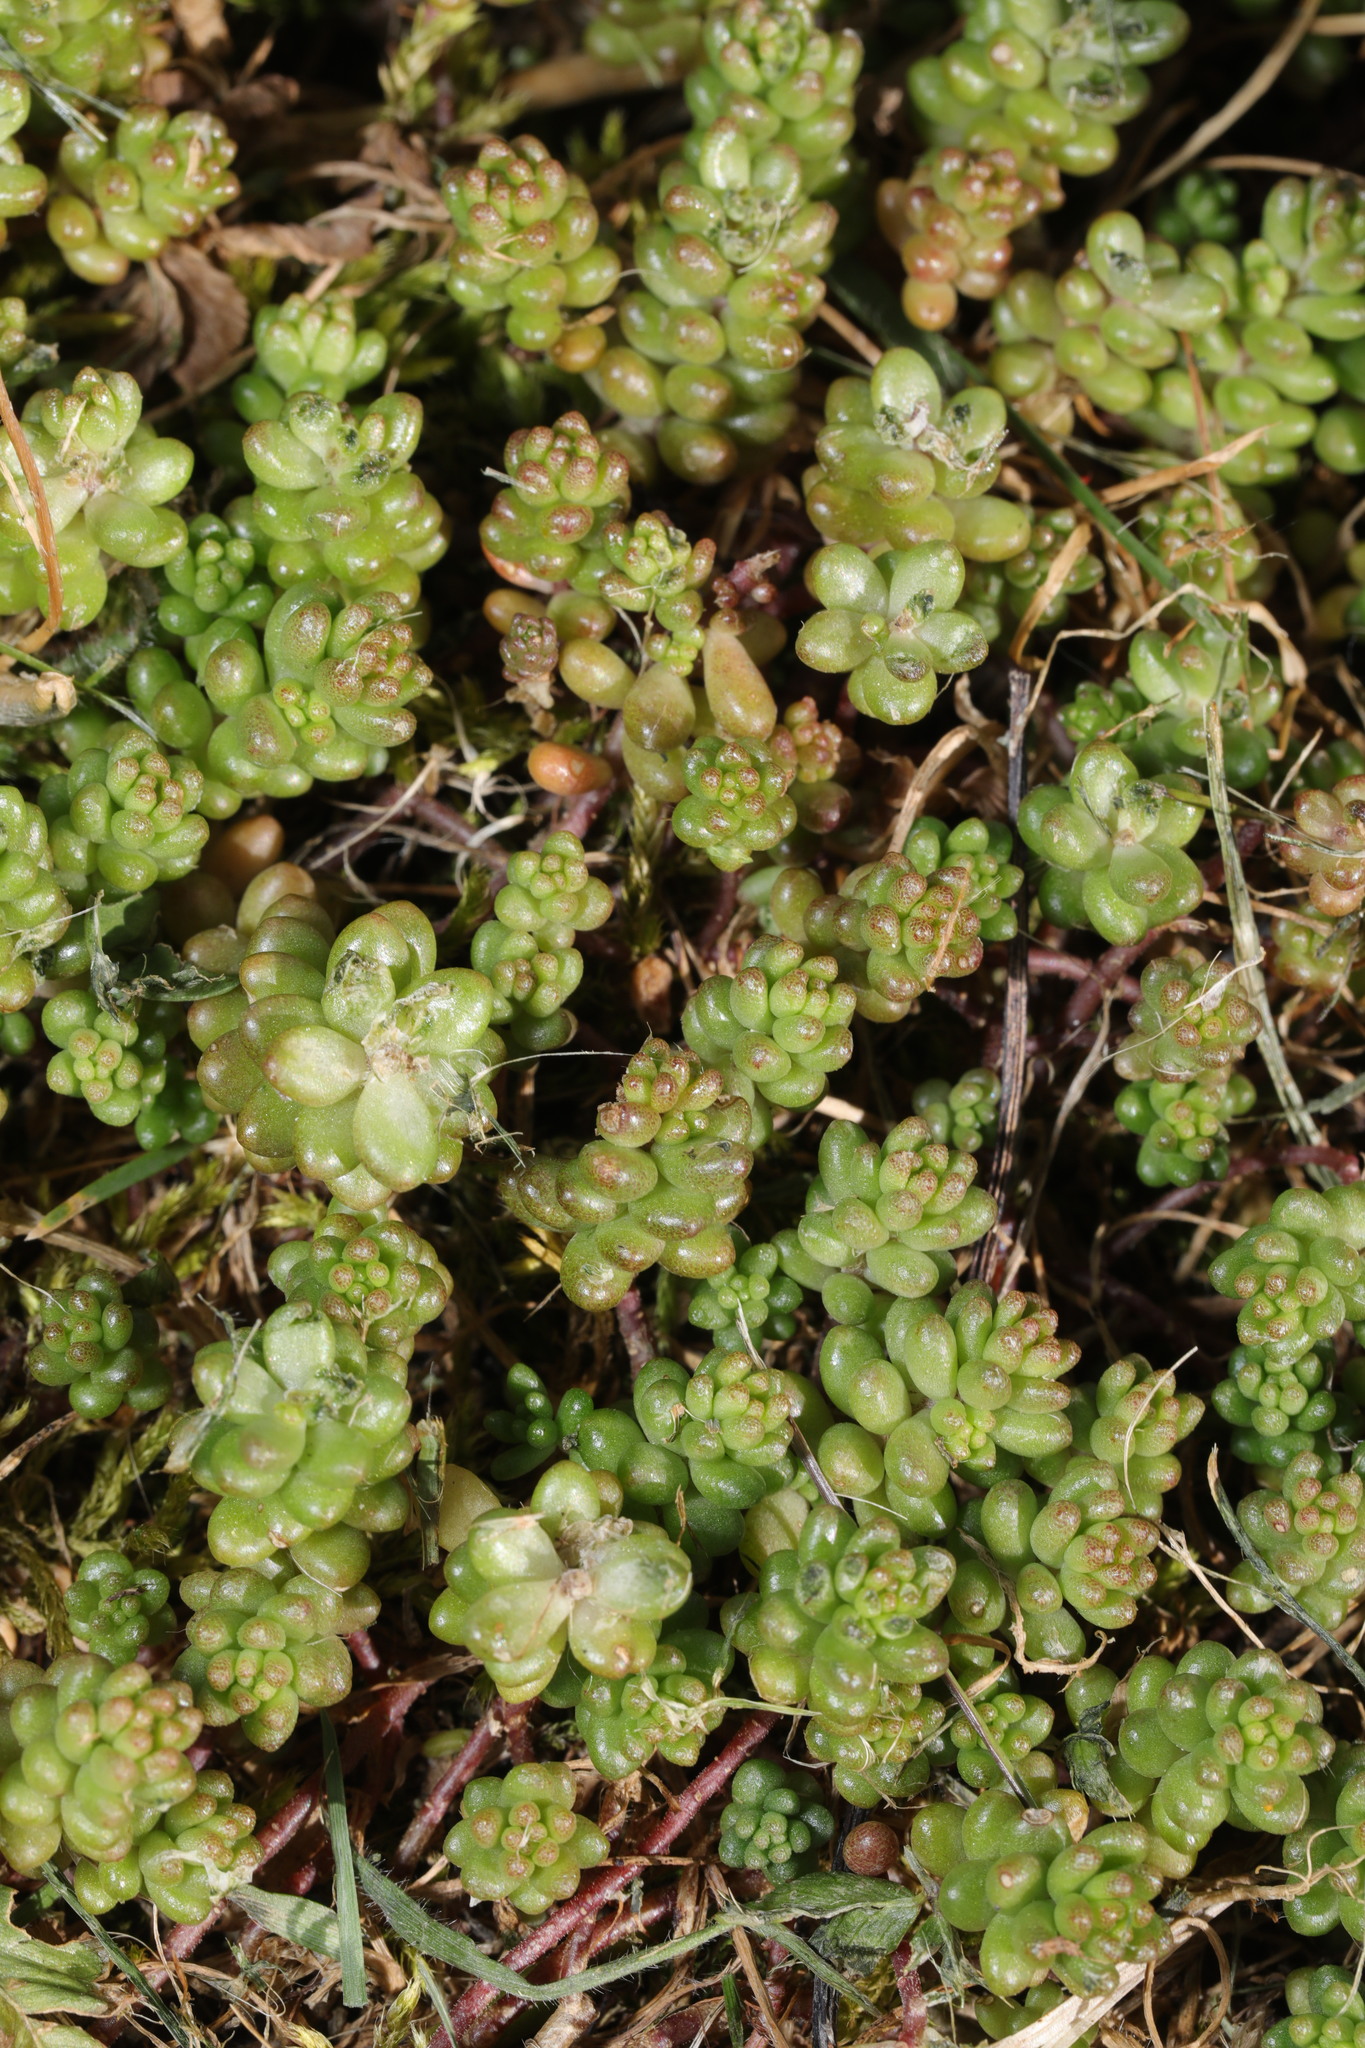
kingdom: Plantae
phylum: Tracheophyta
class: Magnoliopsida
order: Saxifragales
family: Crassulaceae
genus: Sedum
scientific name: Sedum album
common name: White stonecrop
